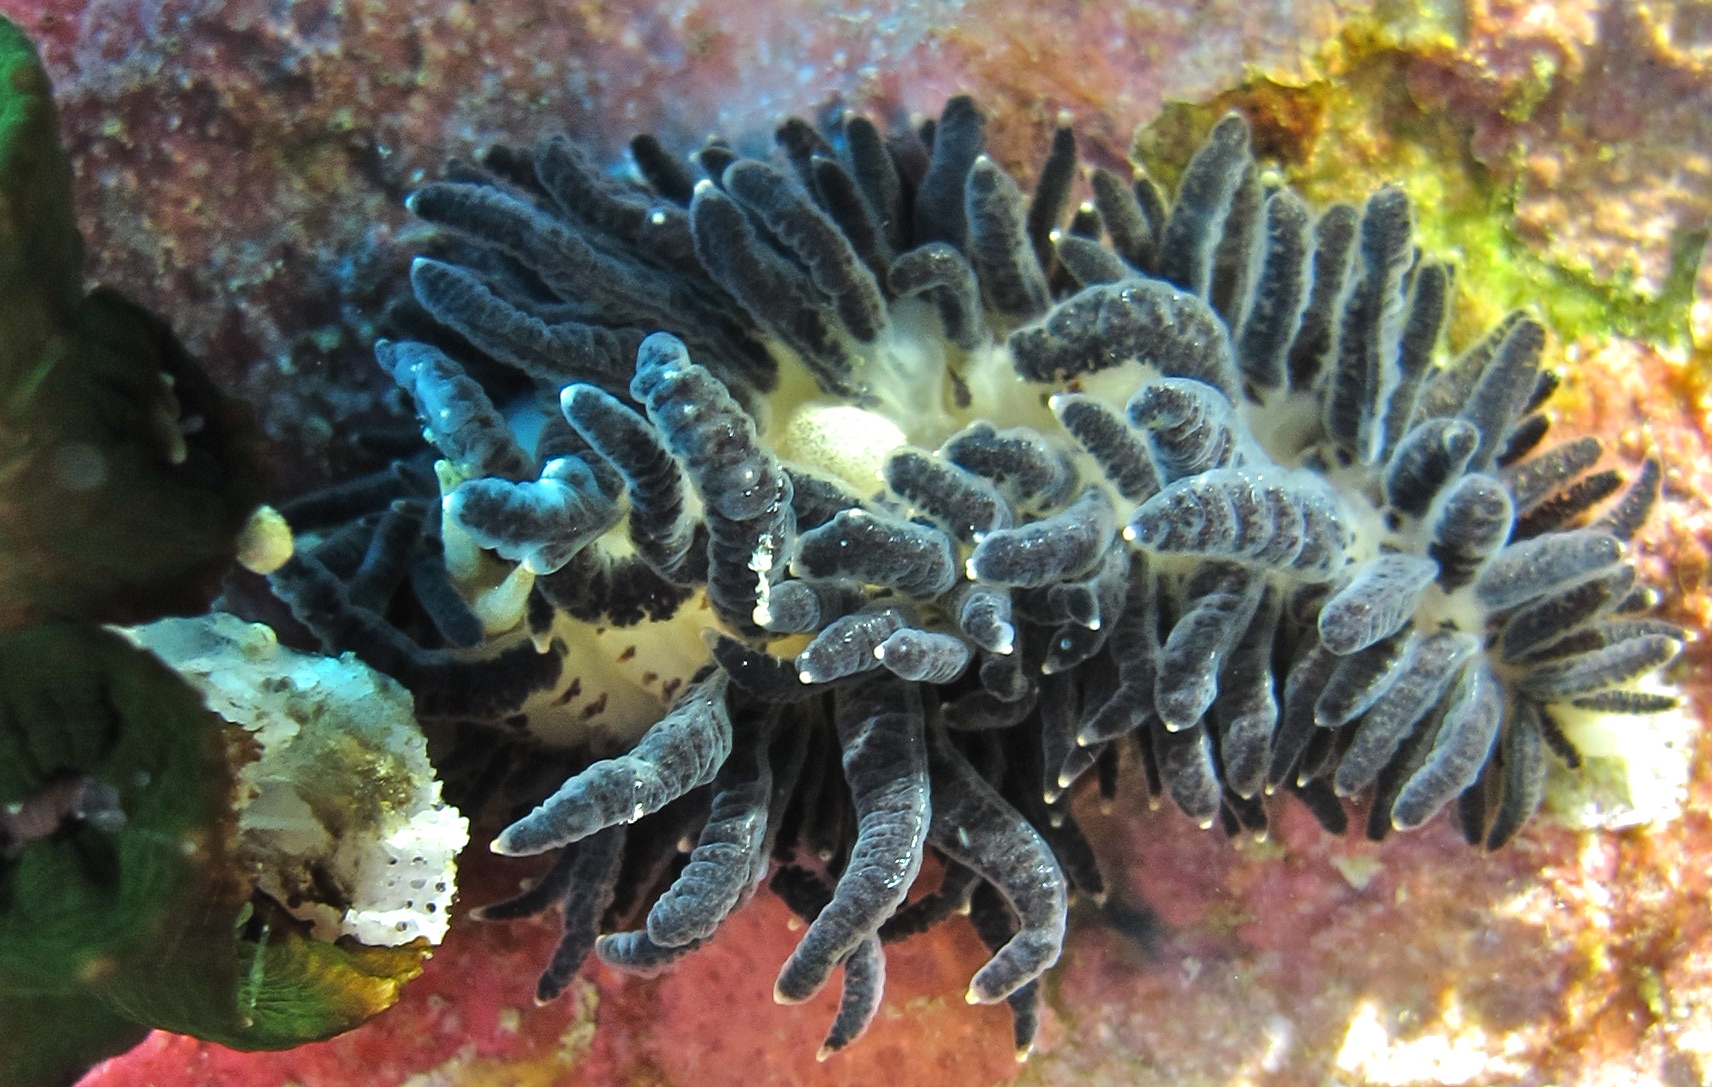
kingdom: Animalia
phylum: Mollusca
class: Gastropoda
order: Nudibranchia
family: Trinchesiidae
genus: Phestilla
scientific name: Phestilla melanobrachia
